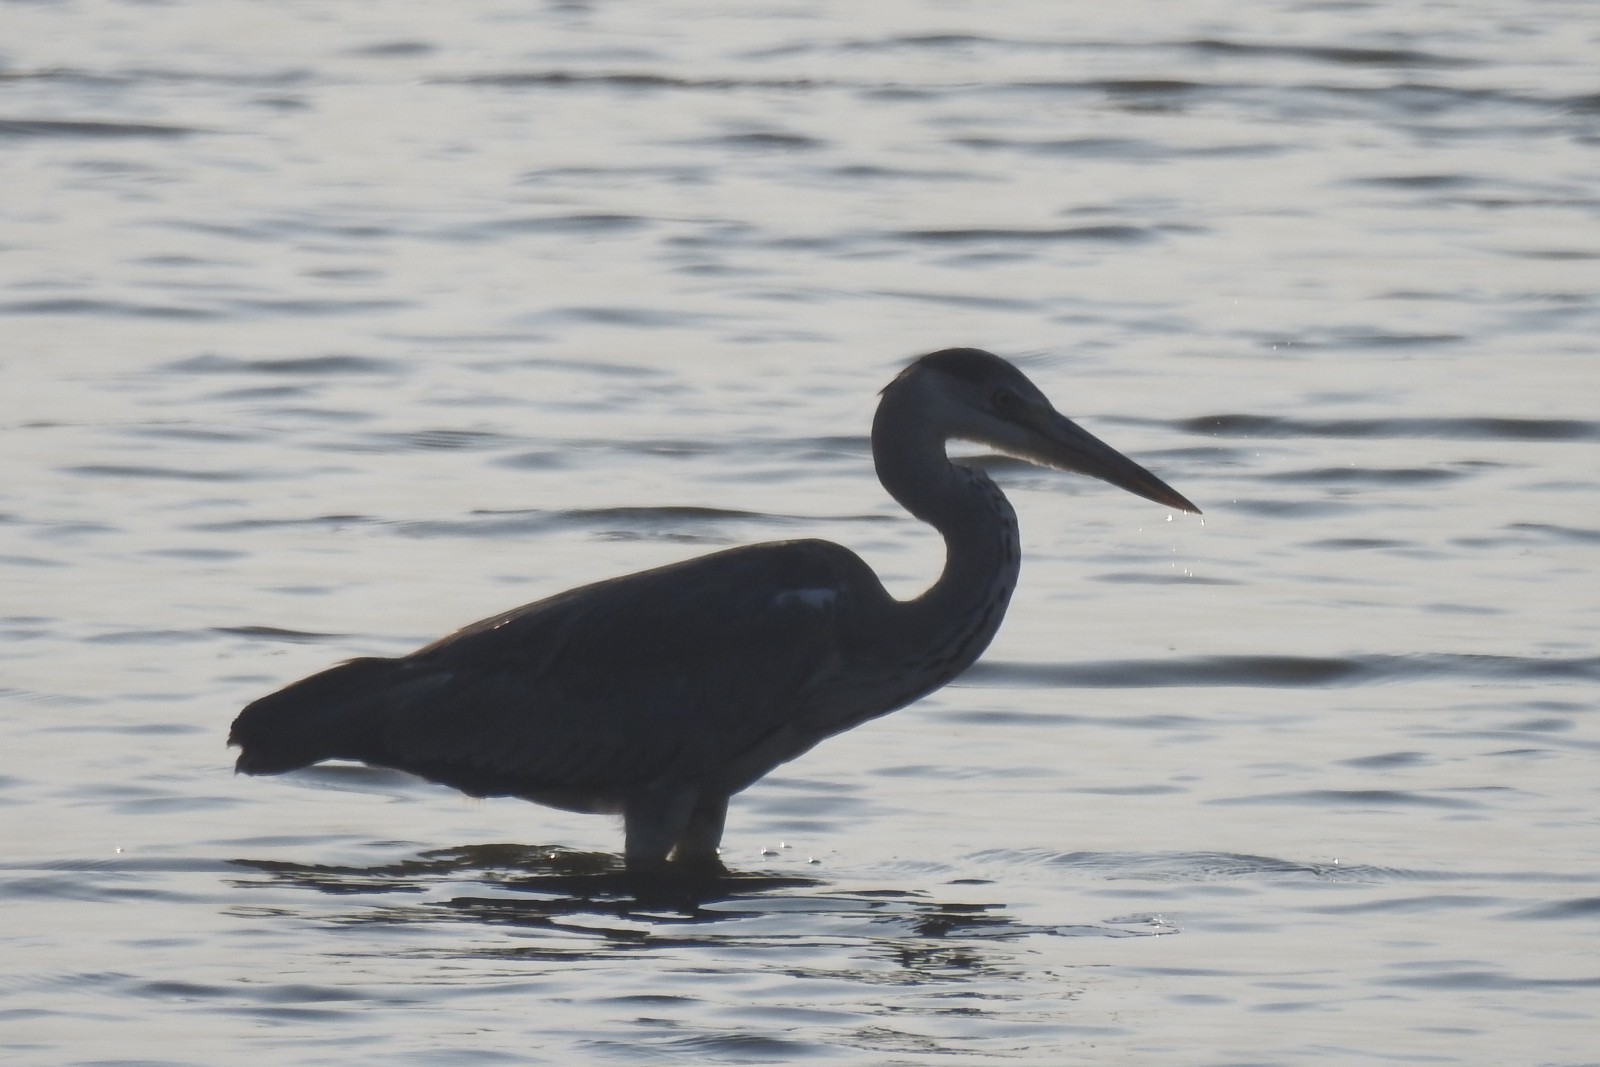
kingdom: Animalia
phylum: Chordata
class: Aves
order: Pelecaniformes
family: Ardeidae
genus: Ardea
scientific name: Ardea cinerea
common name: Grey heron
